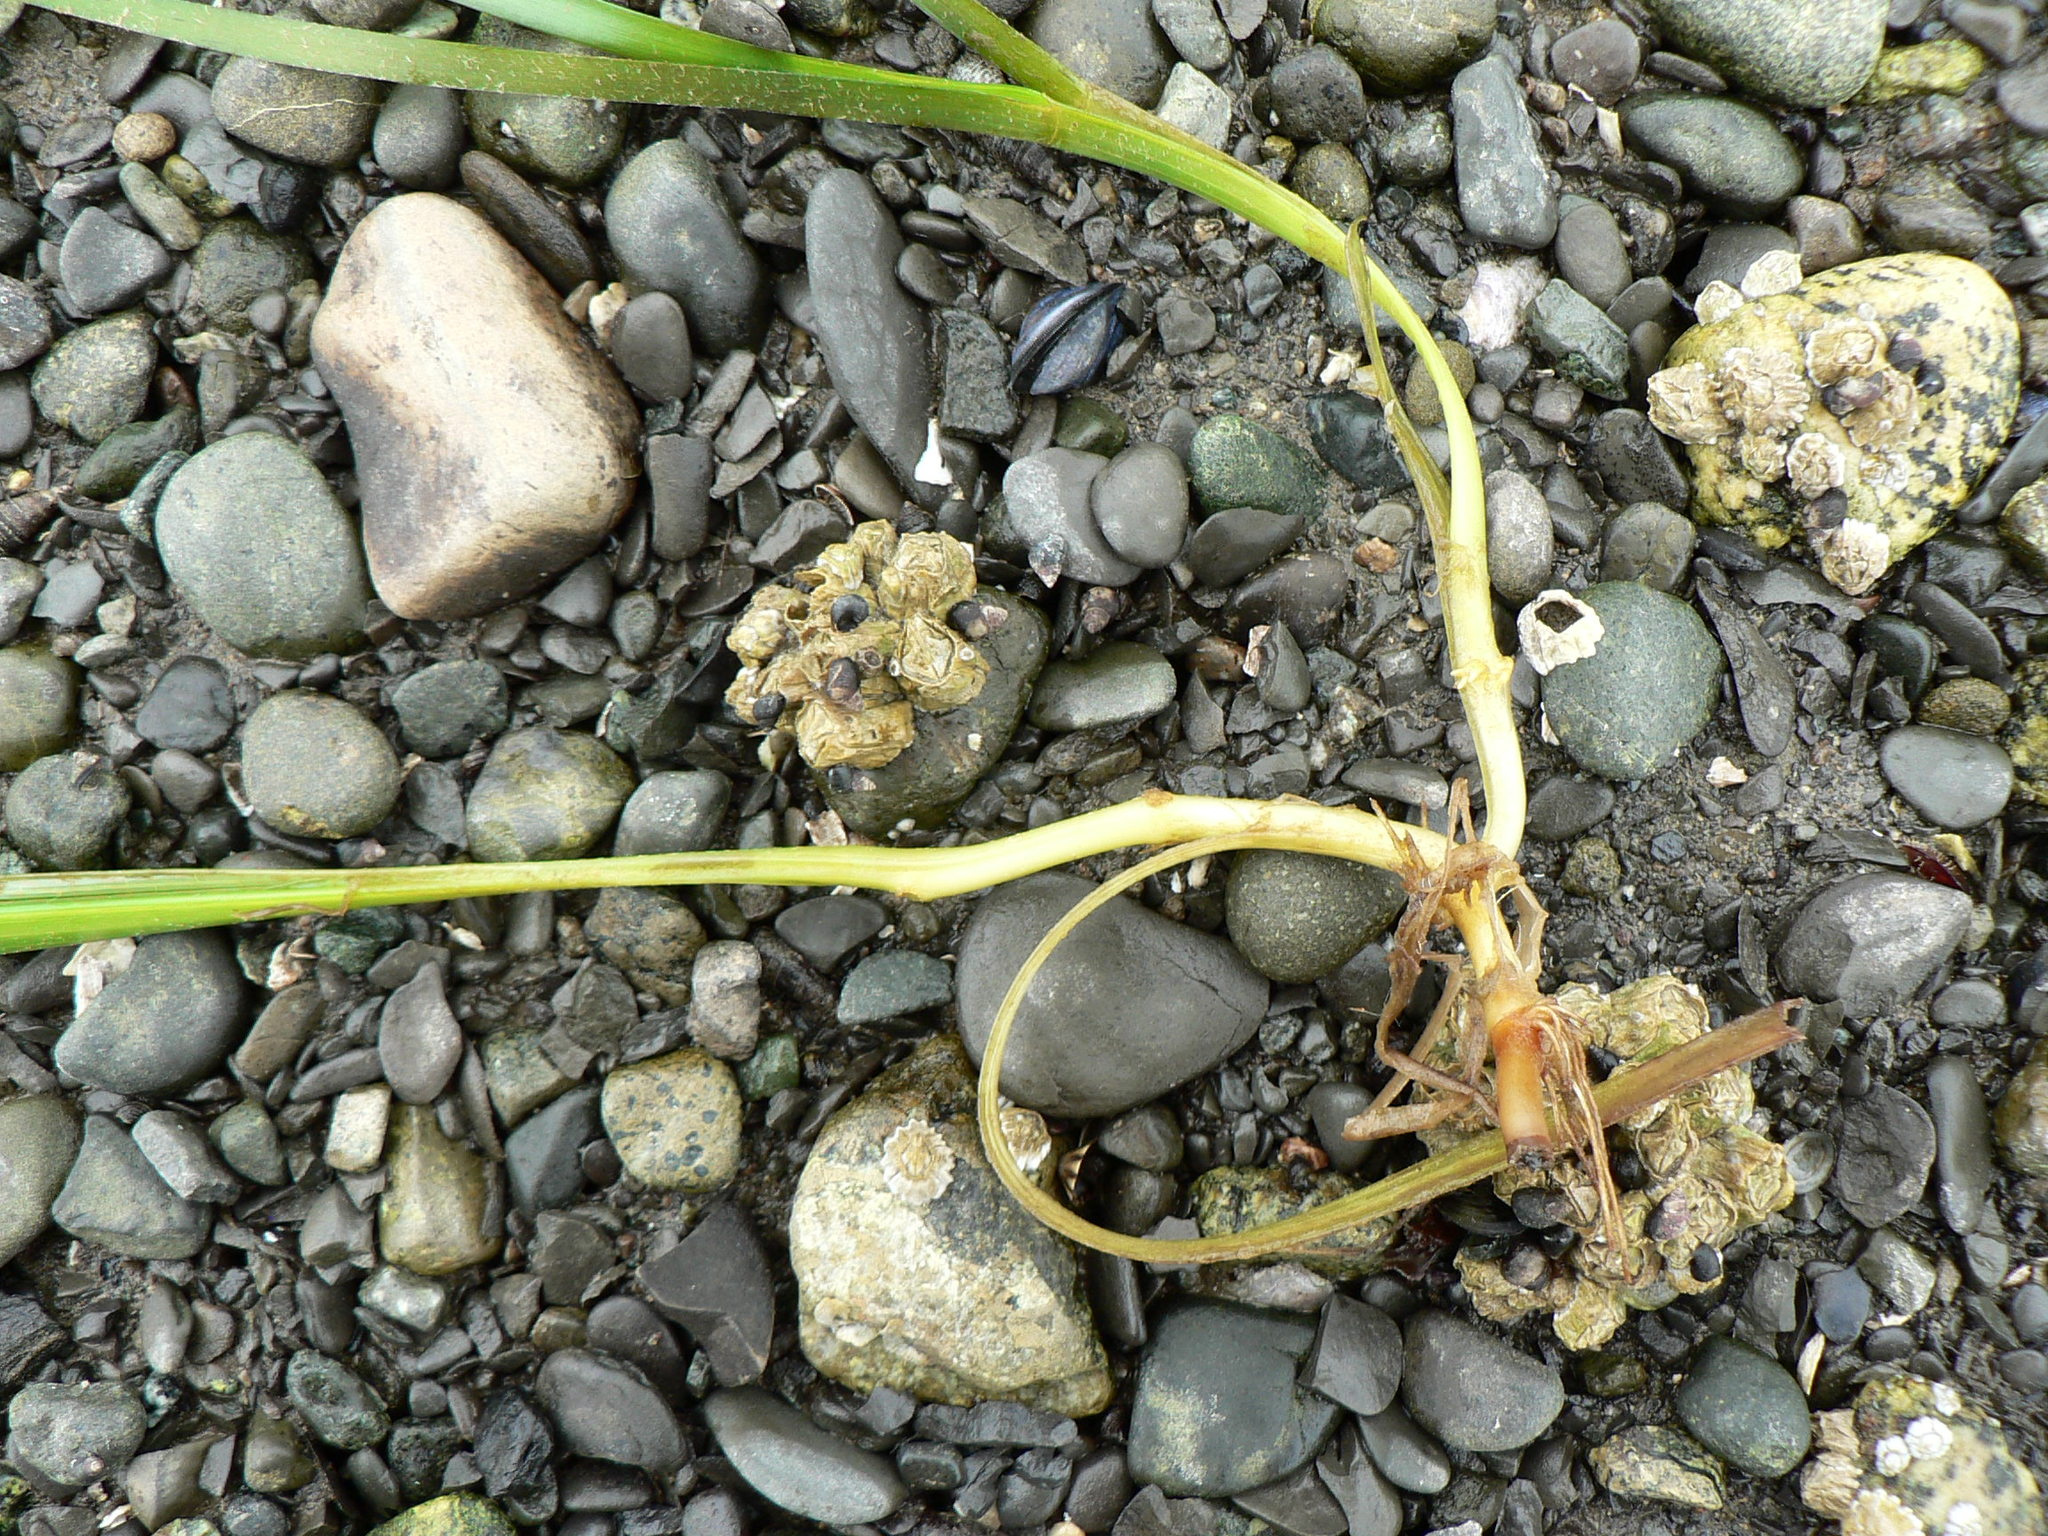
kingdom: Plantae
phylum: Tracheophyta
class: Liliopsida
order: Alismatales
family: Zosteraceae
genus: Zostera
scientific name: Zostera marina
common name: Eelgrass
